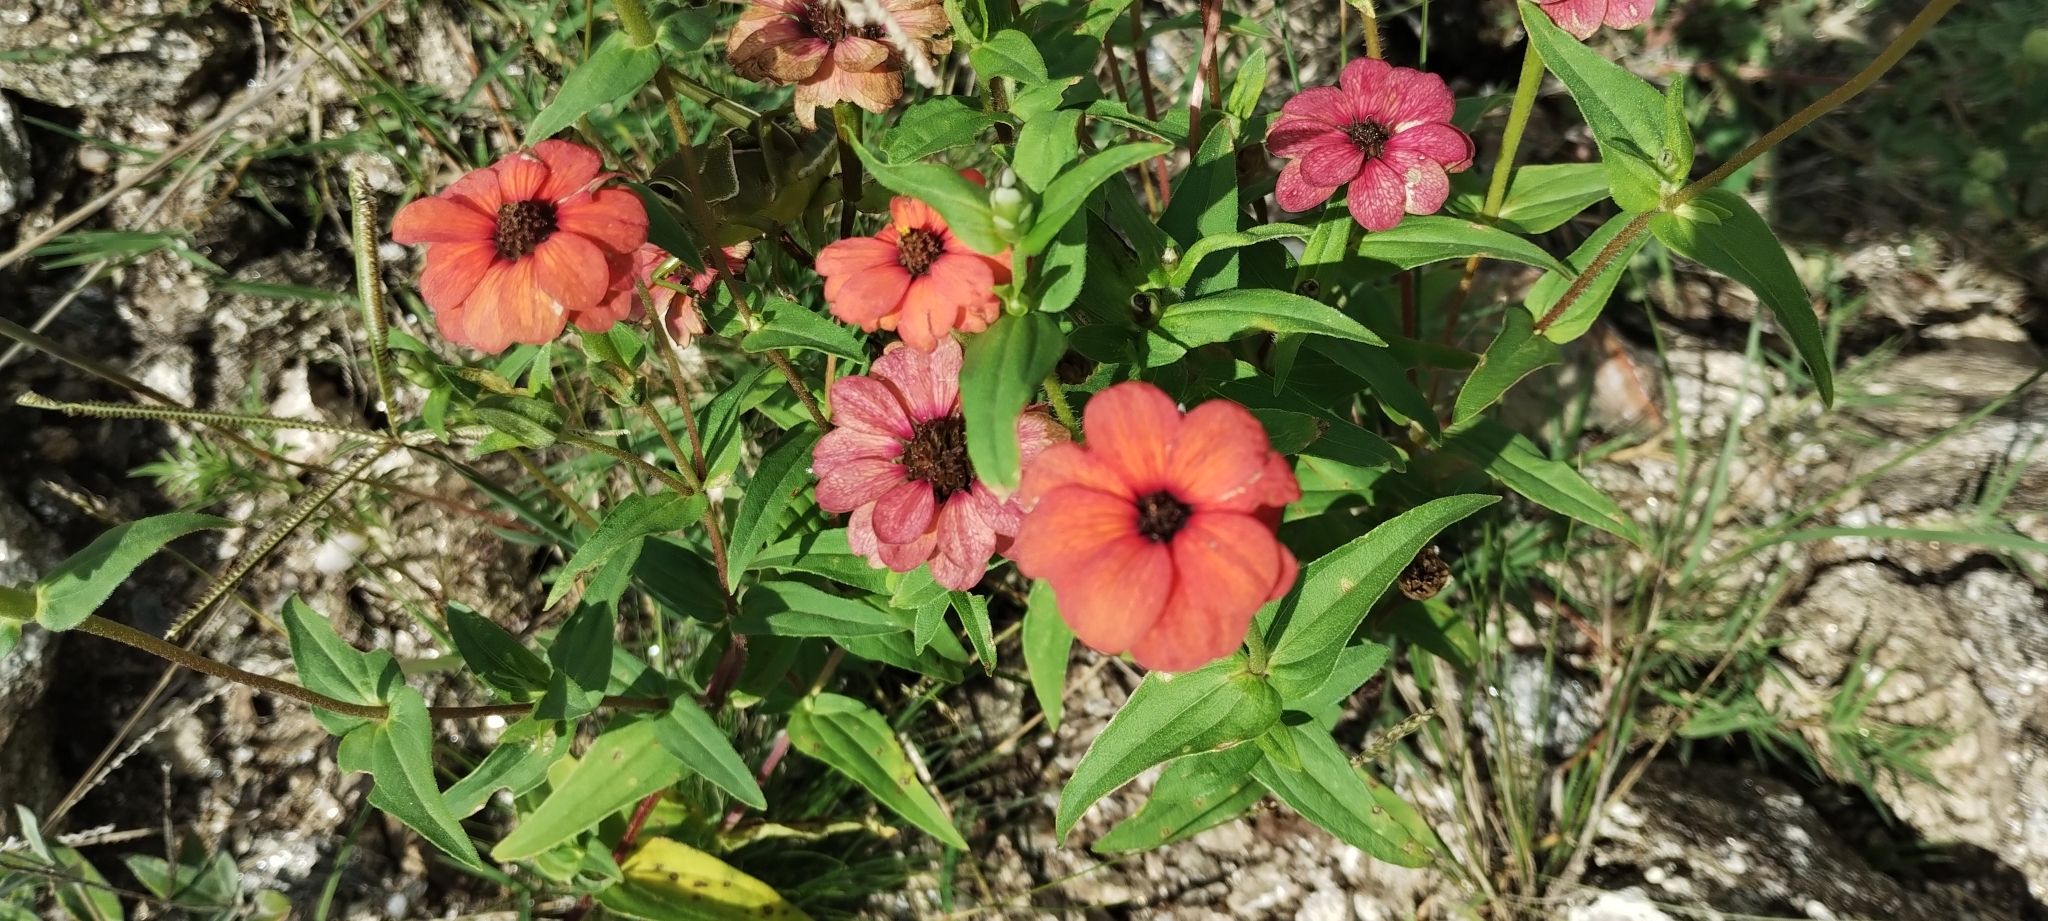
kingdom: Plantae
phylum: Tracheophyta
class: Magnoliopsida
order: Asterales
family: Asteraceae
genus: Zinnia
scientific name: Zinnia peruviana
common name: Peruvian zinnia
